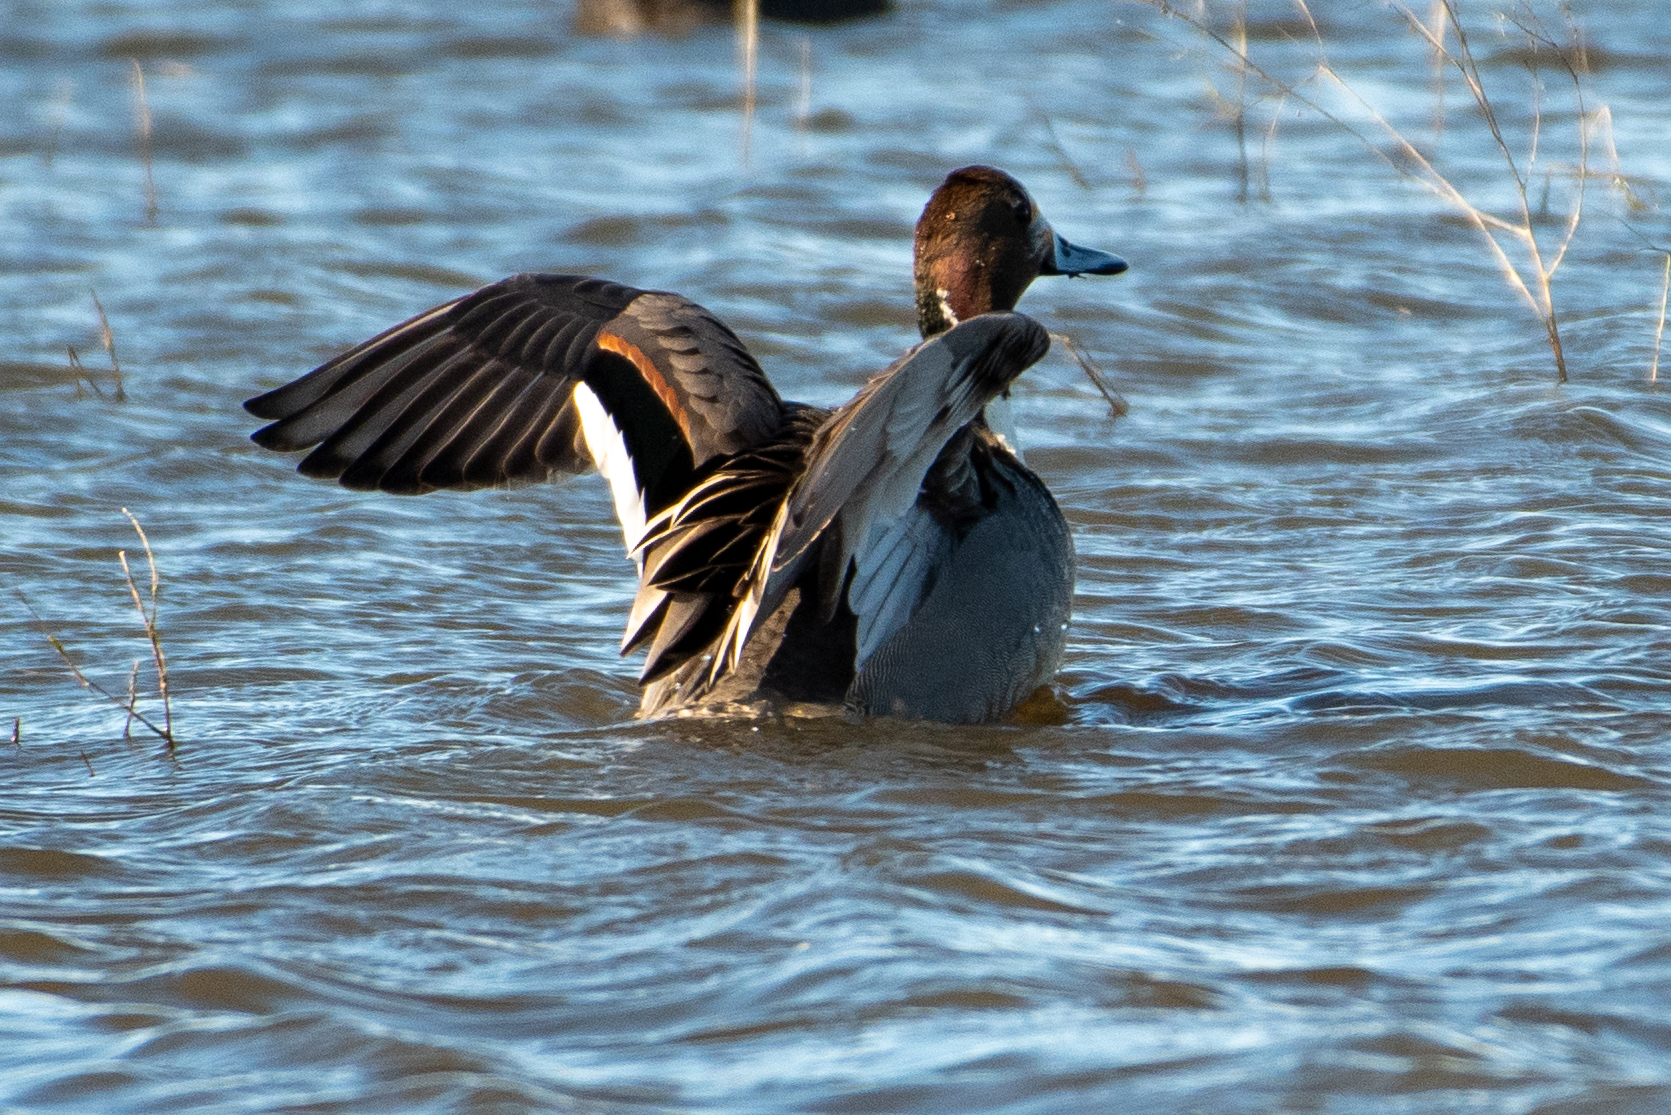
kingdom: Animalia
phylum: Chordata
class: Aves
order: Anseriformes
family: Anatidae
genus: Anas
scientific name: Anas acuta
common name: Northern pintail
